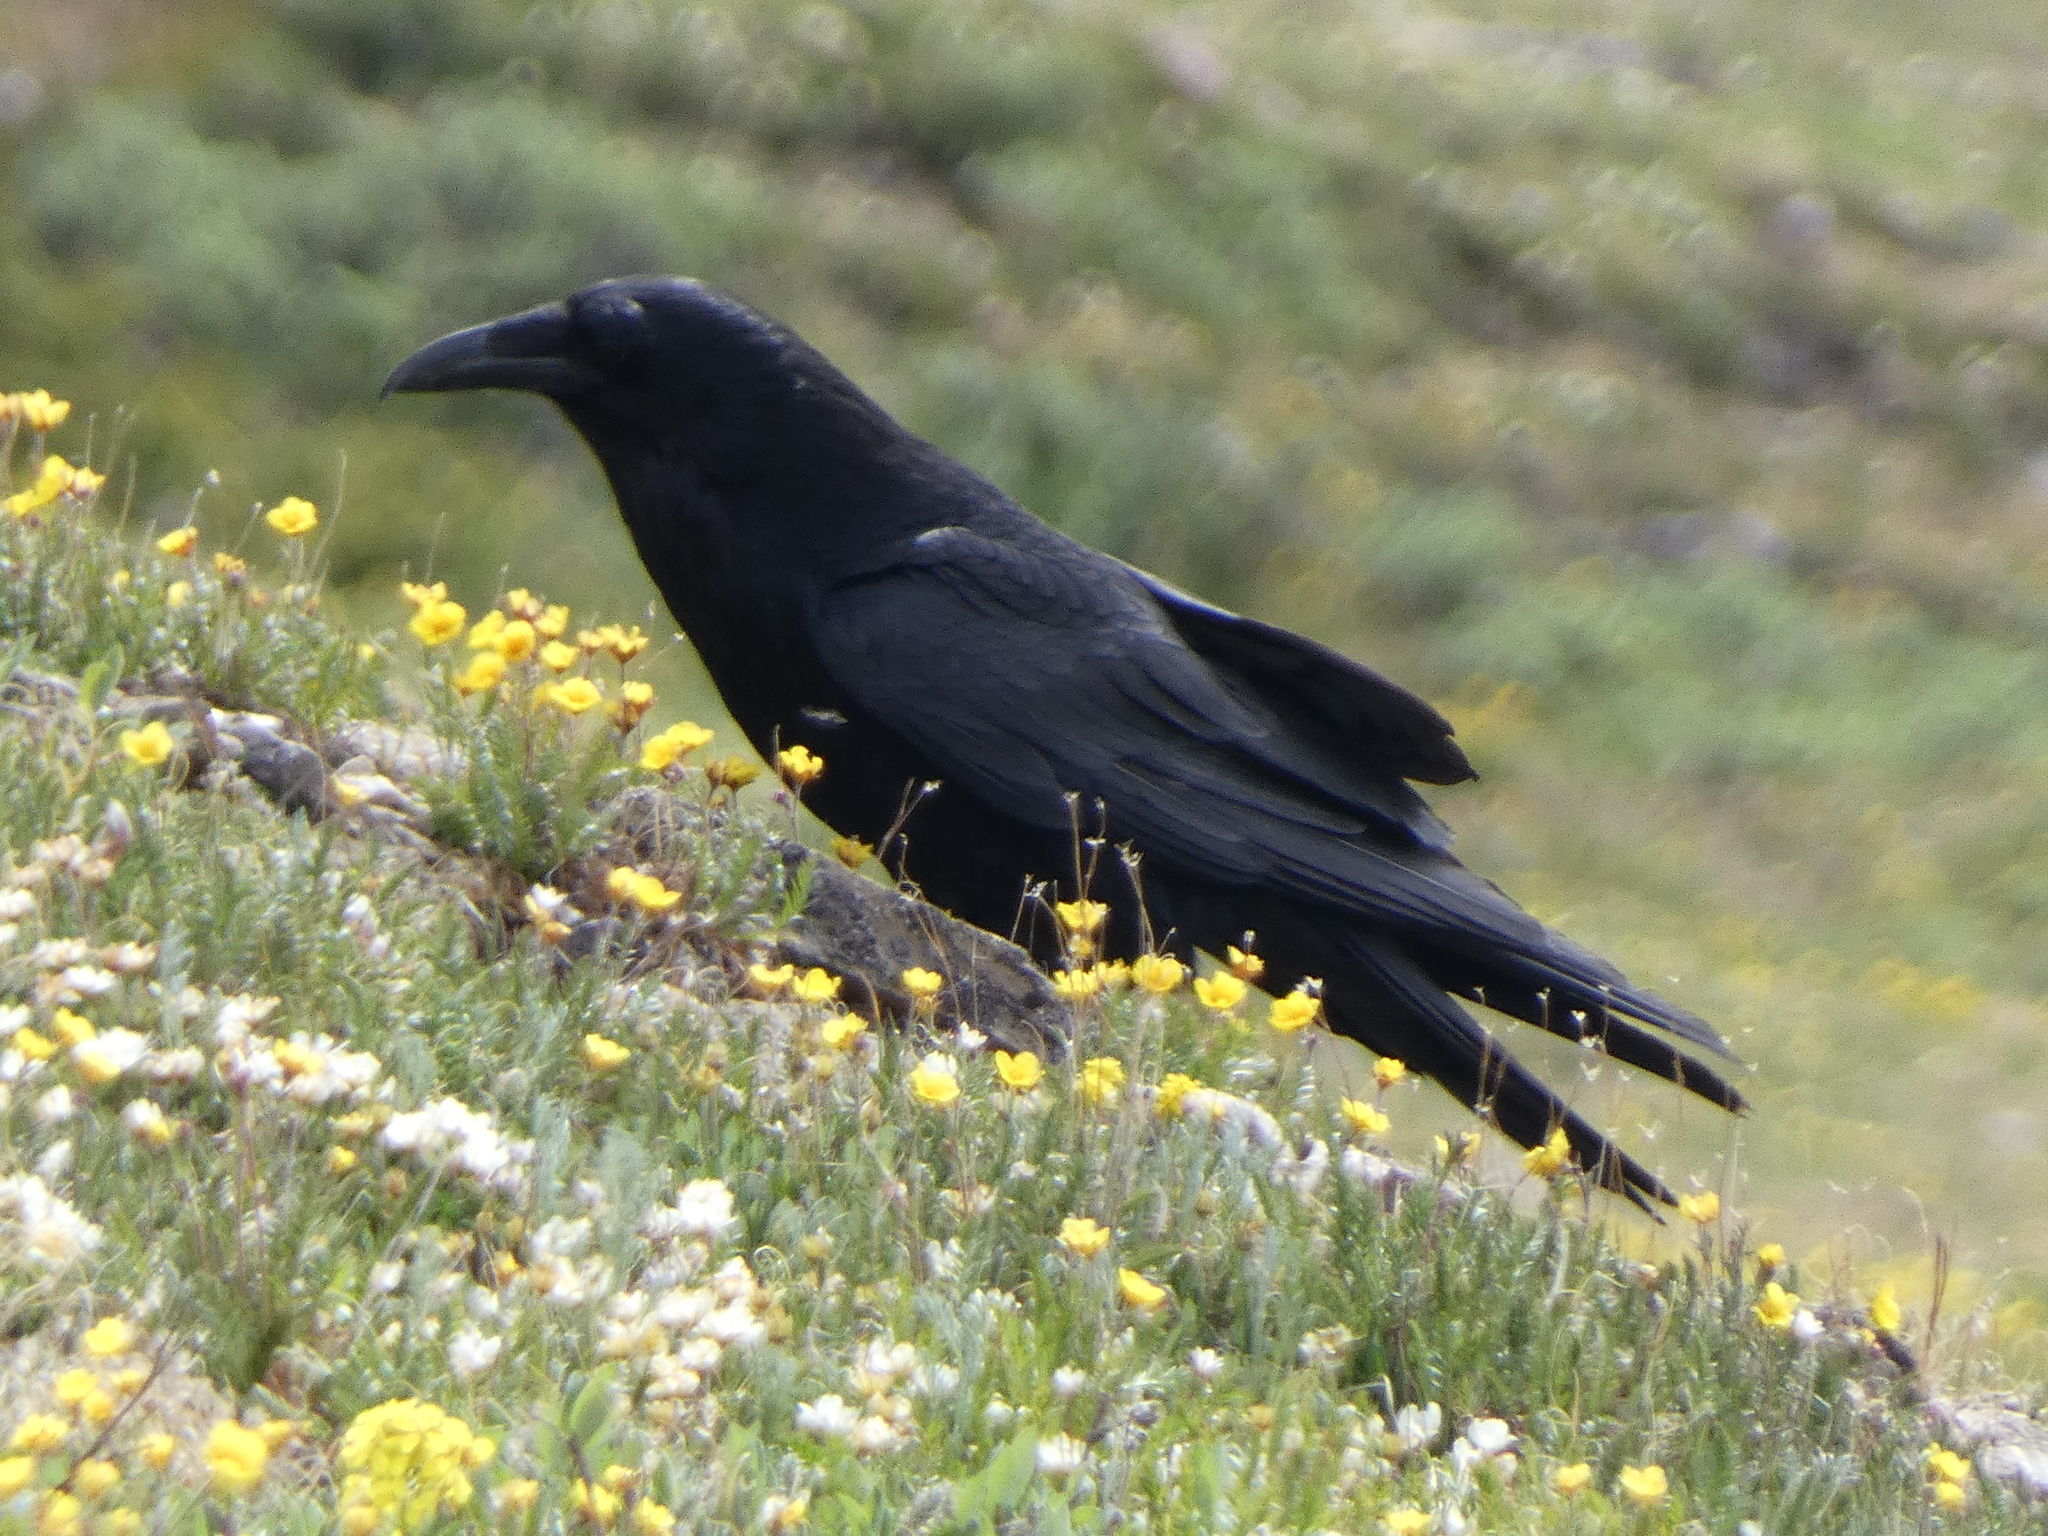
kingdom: Animalia
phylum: Chordata
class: Aves
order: Passeriformes
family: Corvidae
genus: Corvus
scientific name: Corvus corax
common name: Common raven
